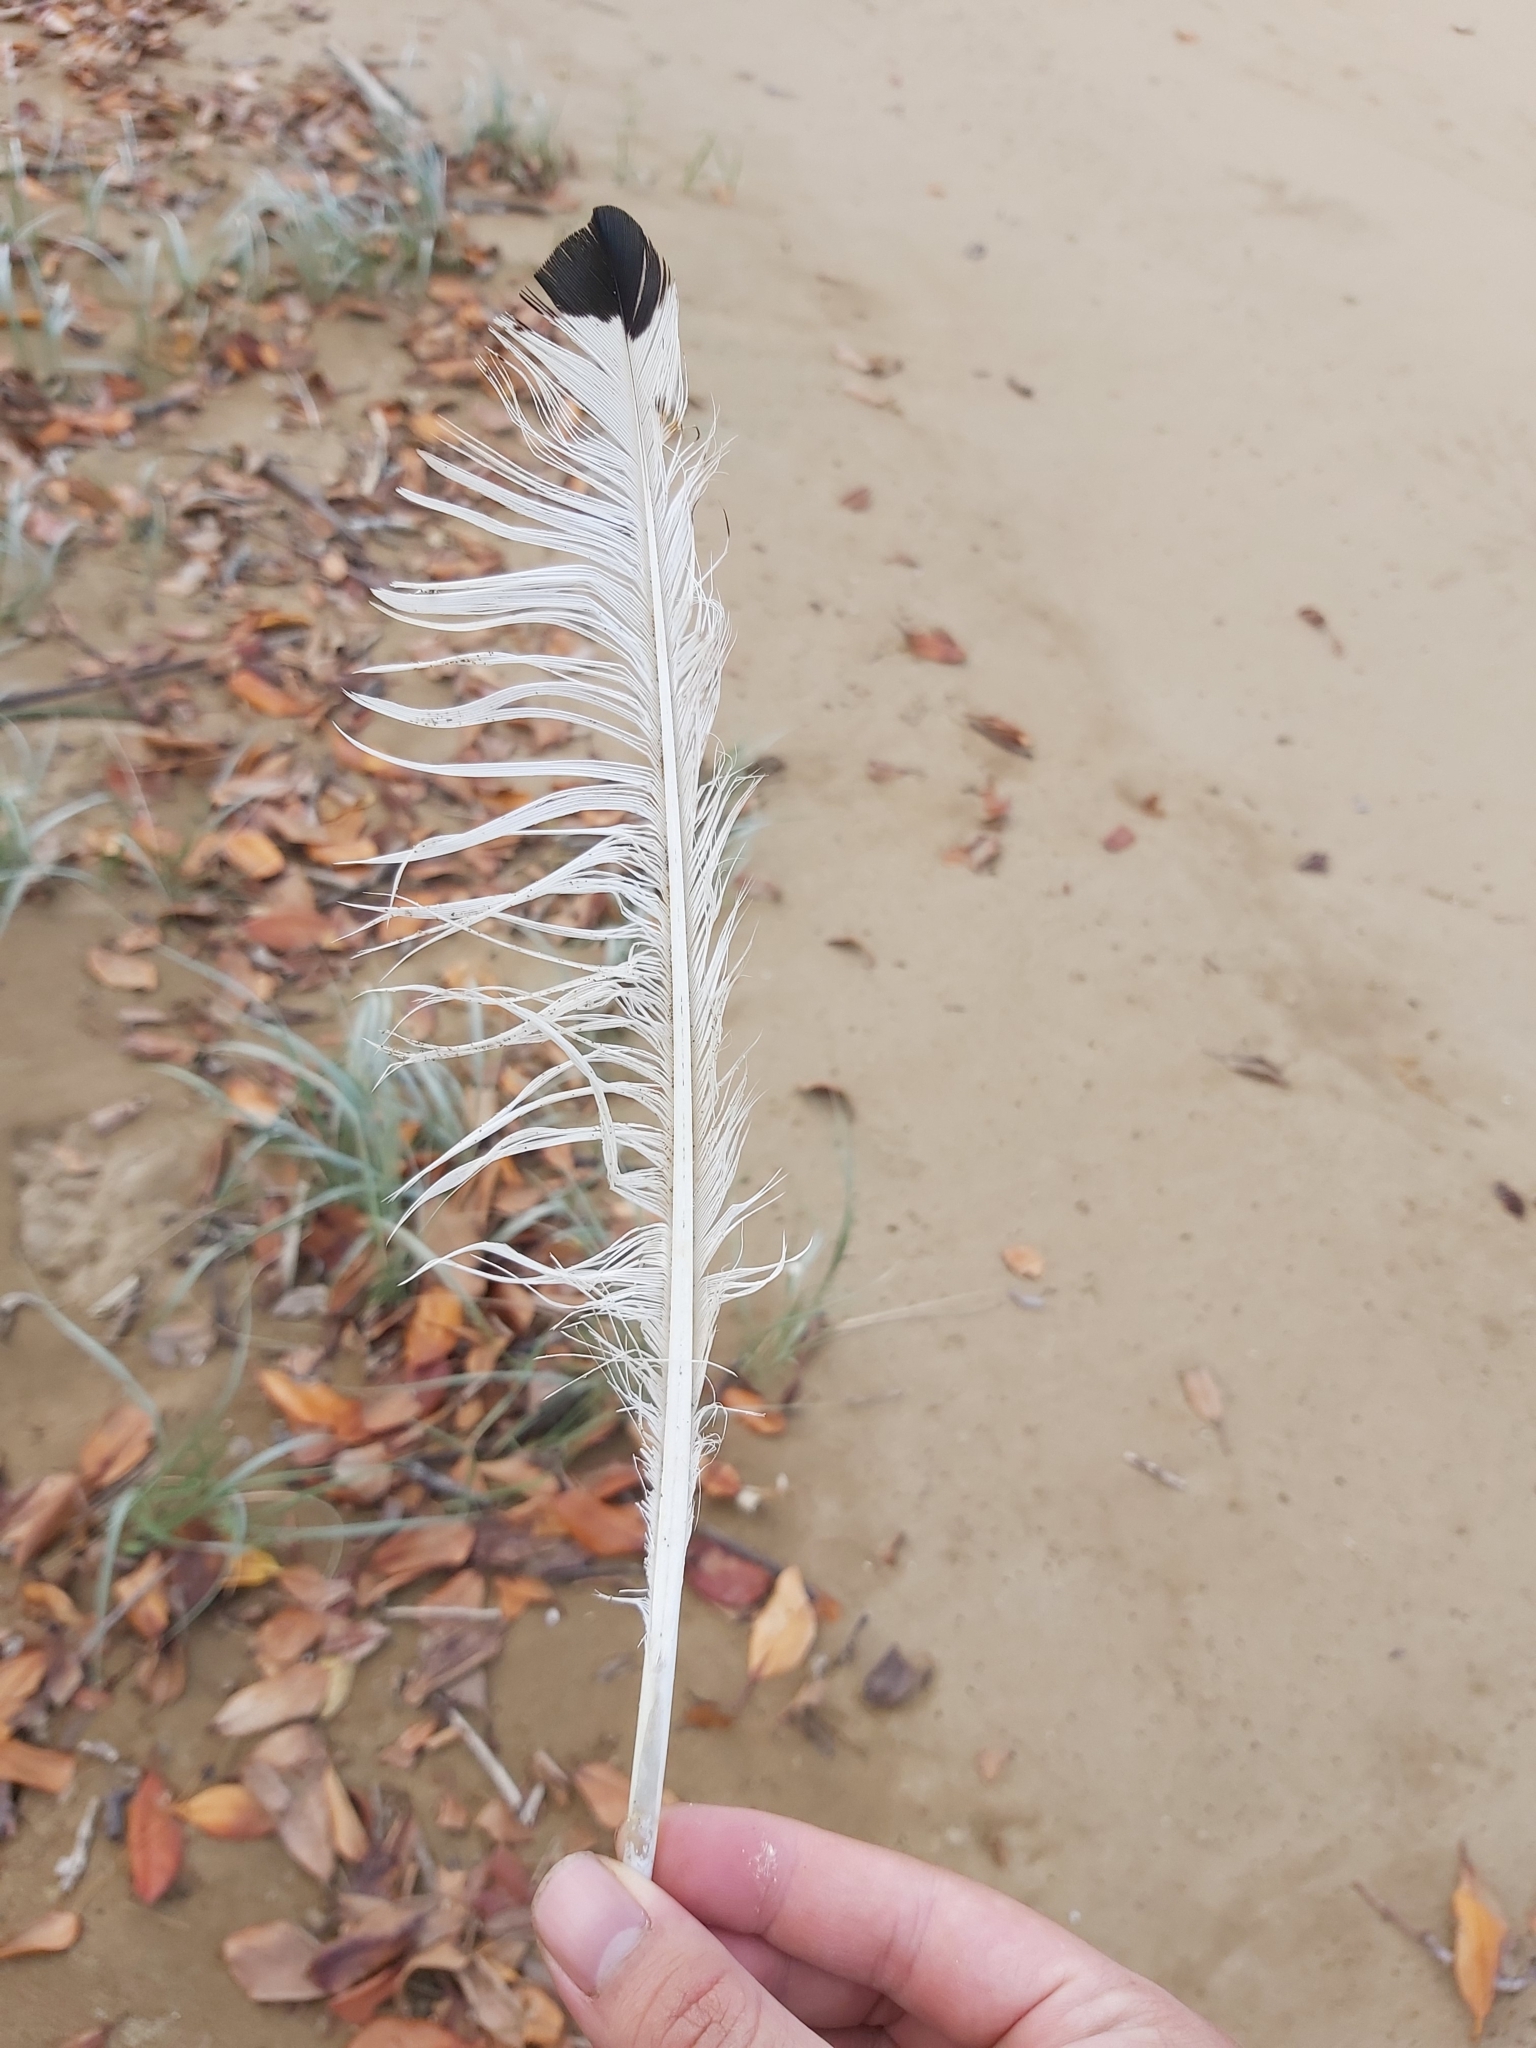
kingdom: Animalia
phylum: Chordata
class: Aves
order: Pelecaniformes
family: Threskiornithidae
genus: Threskiornis
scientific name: Threskiornis molucca
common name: Australian white ibis
